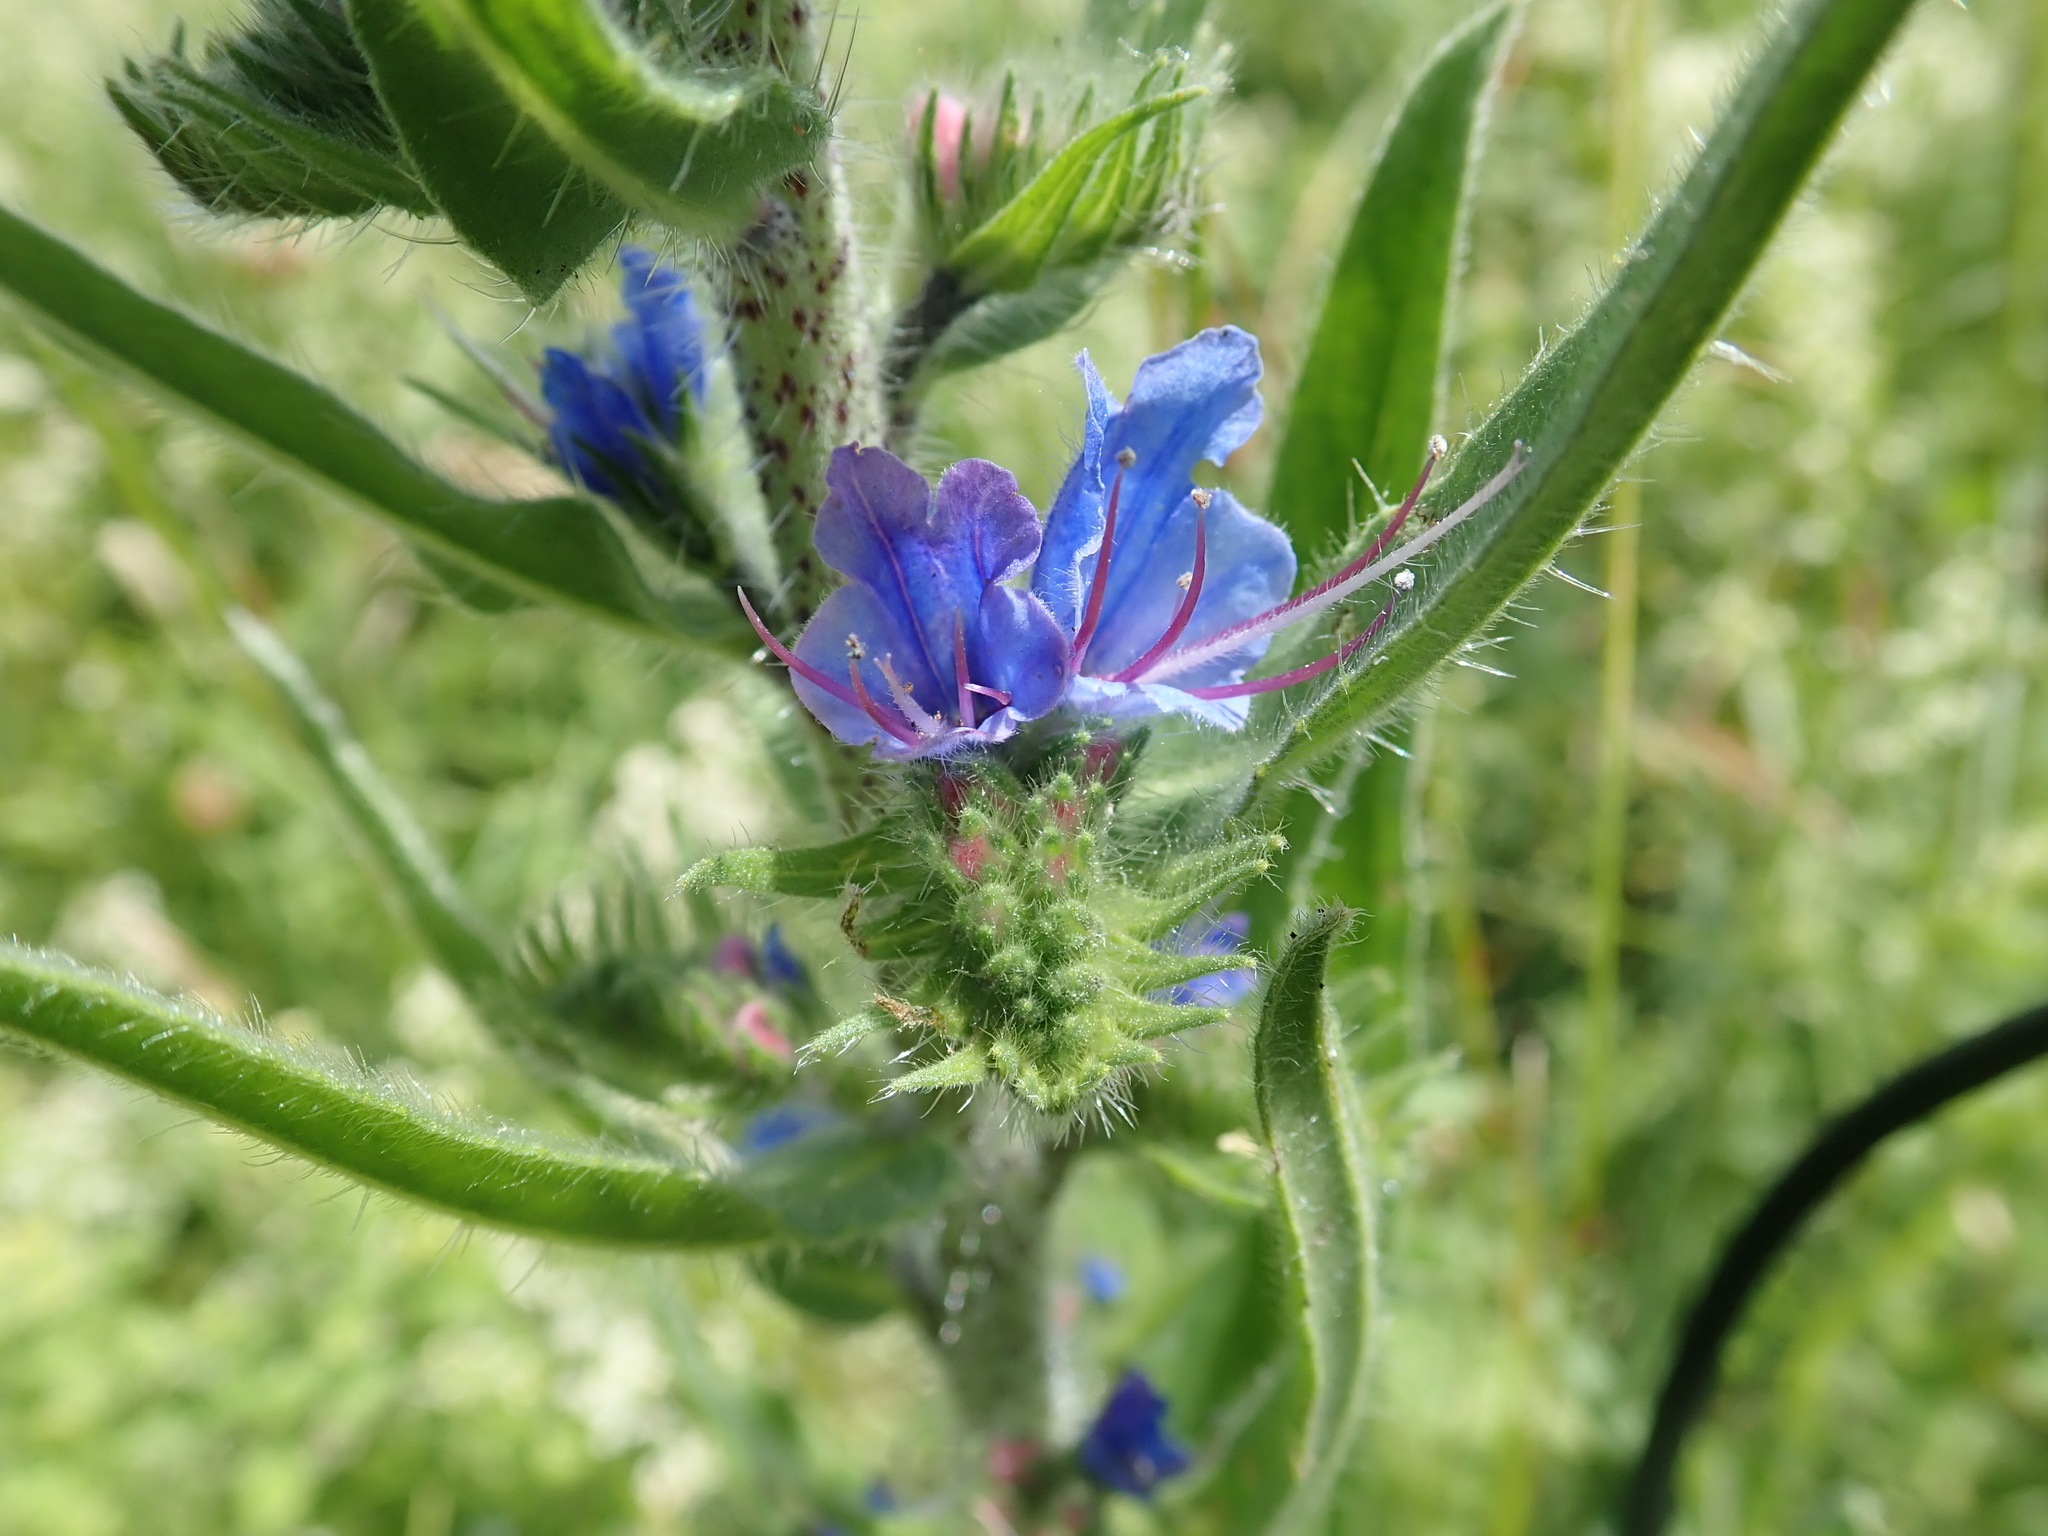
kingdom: Plantae
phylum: Tracheophyta
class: Magnoliopsida
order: Boraginales
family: Boraginaceae
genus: Echium
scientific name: Echium vulgare
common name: Common viper's bugloss
